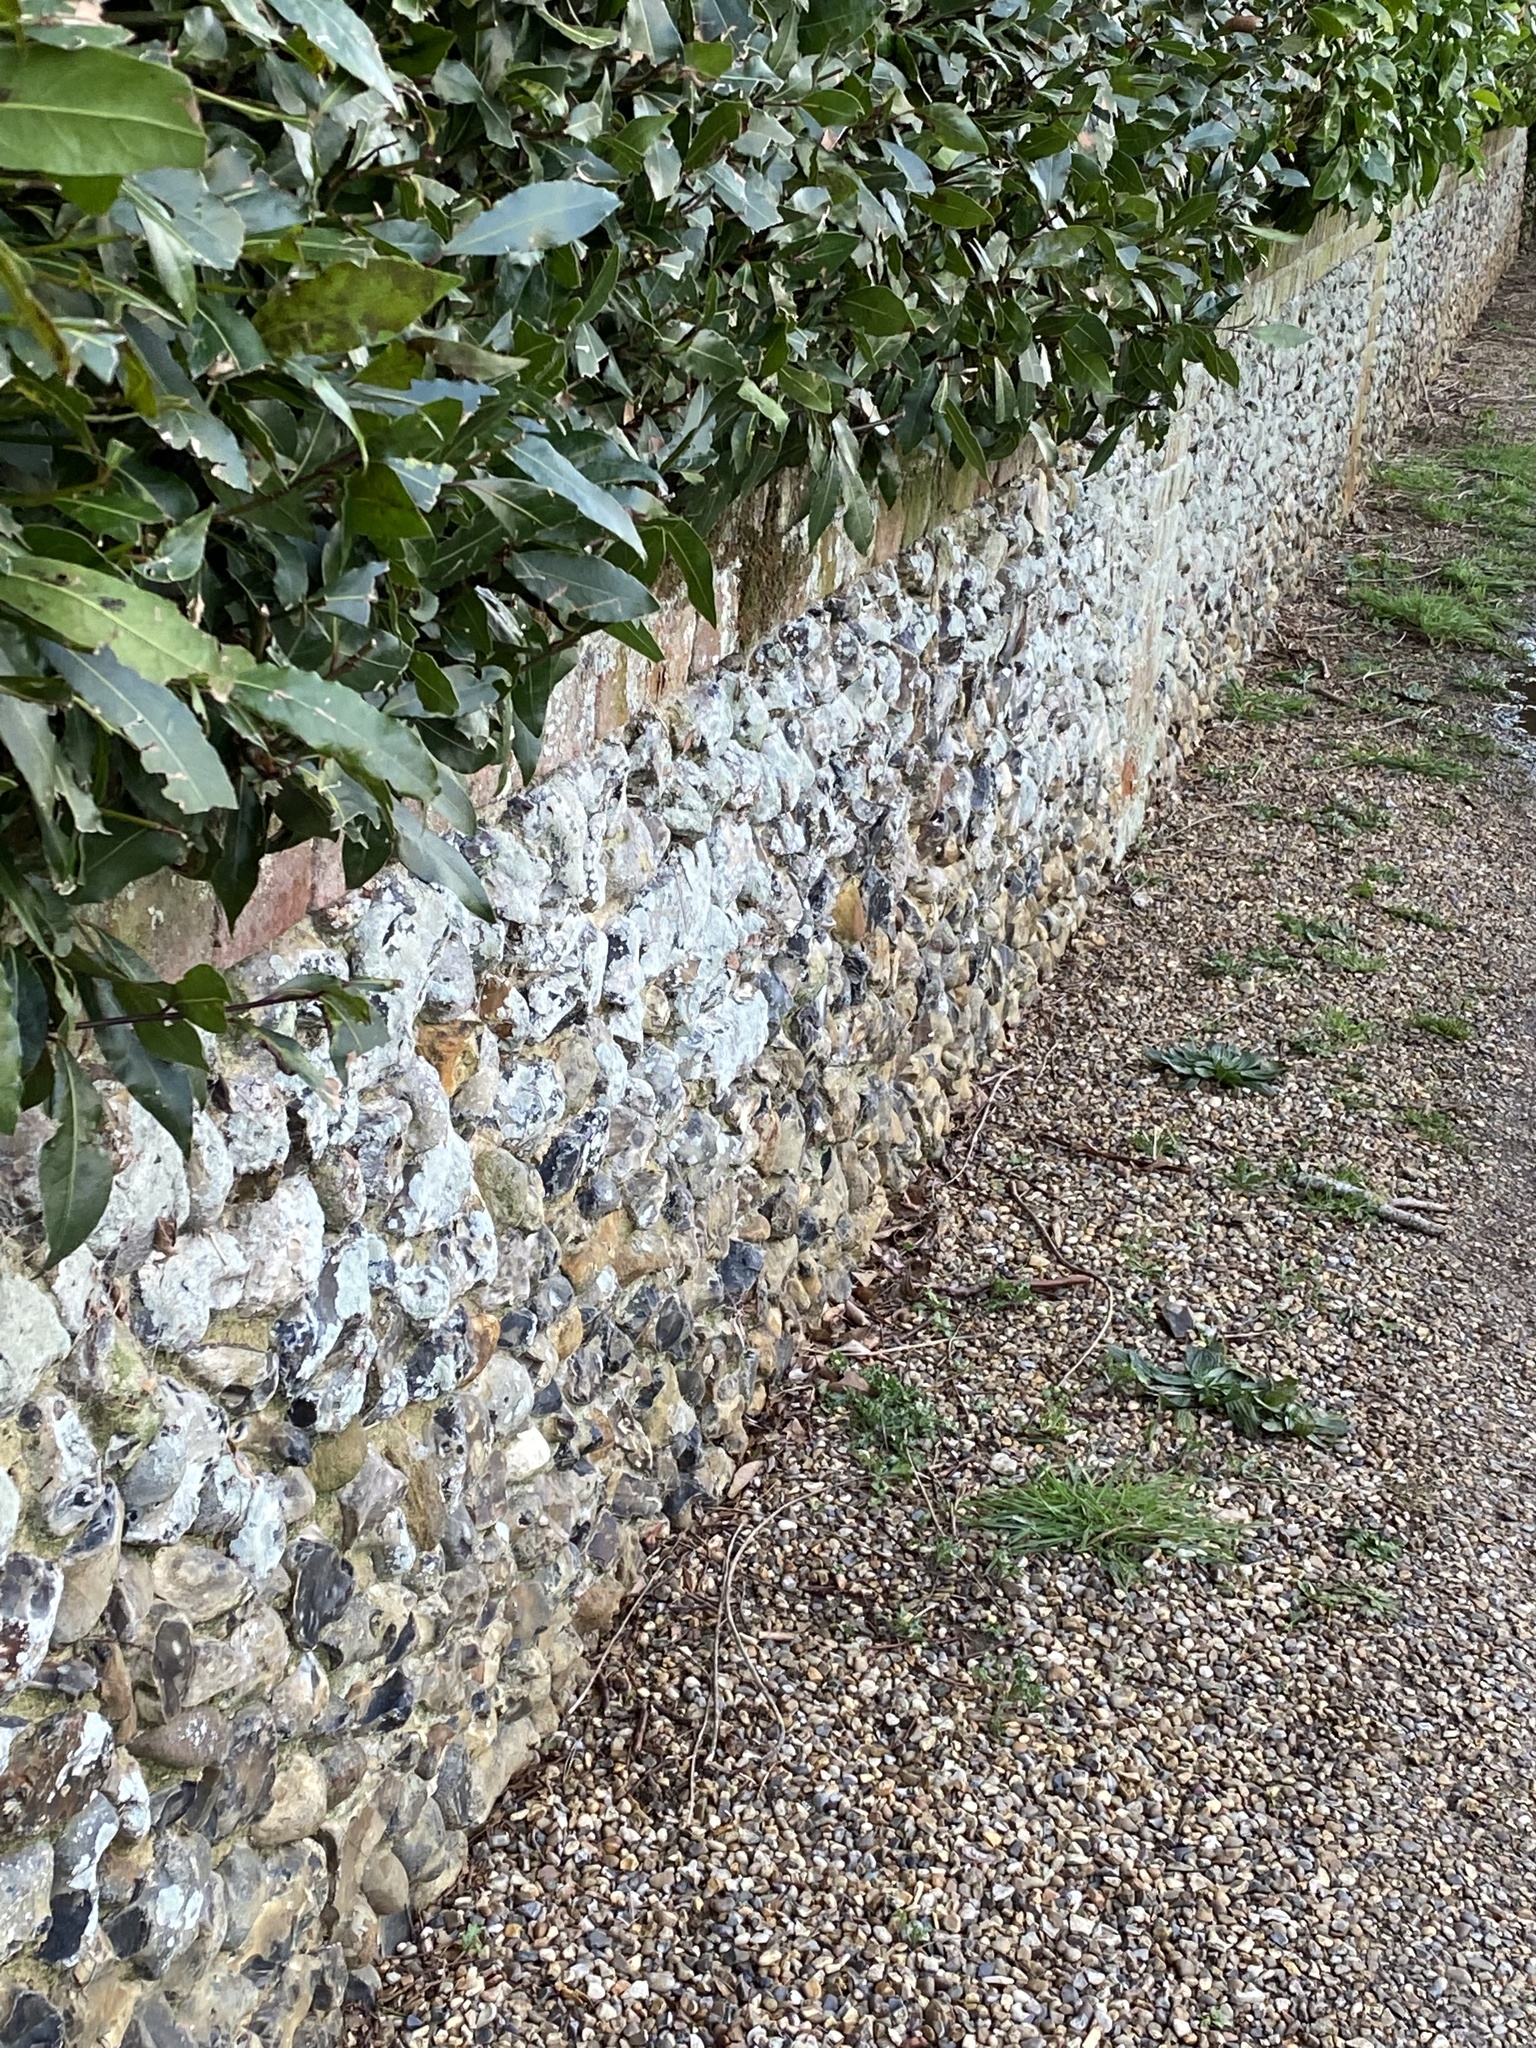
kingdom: Fungi
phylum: Ascomycota
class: Lecanoromycetes
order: Caliciales
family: Caliciaceae
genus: Diploicia
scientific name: Diploicia canescens
